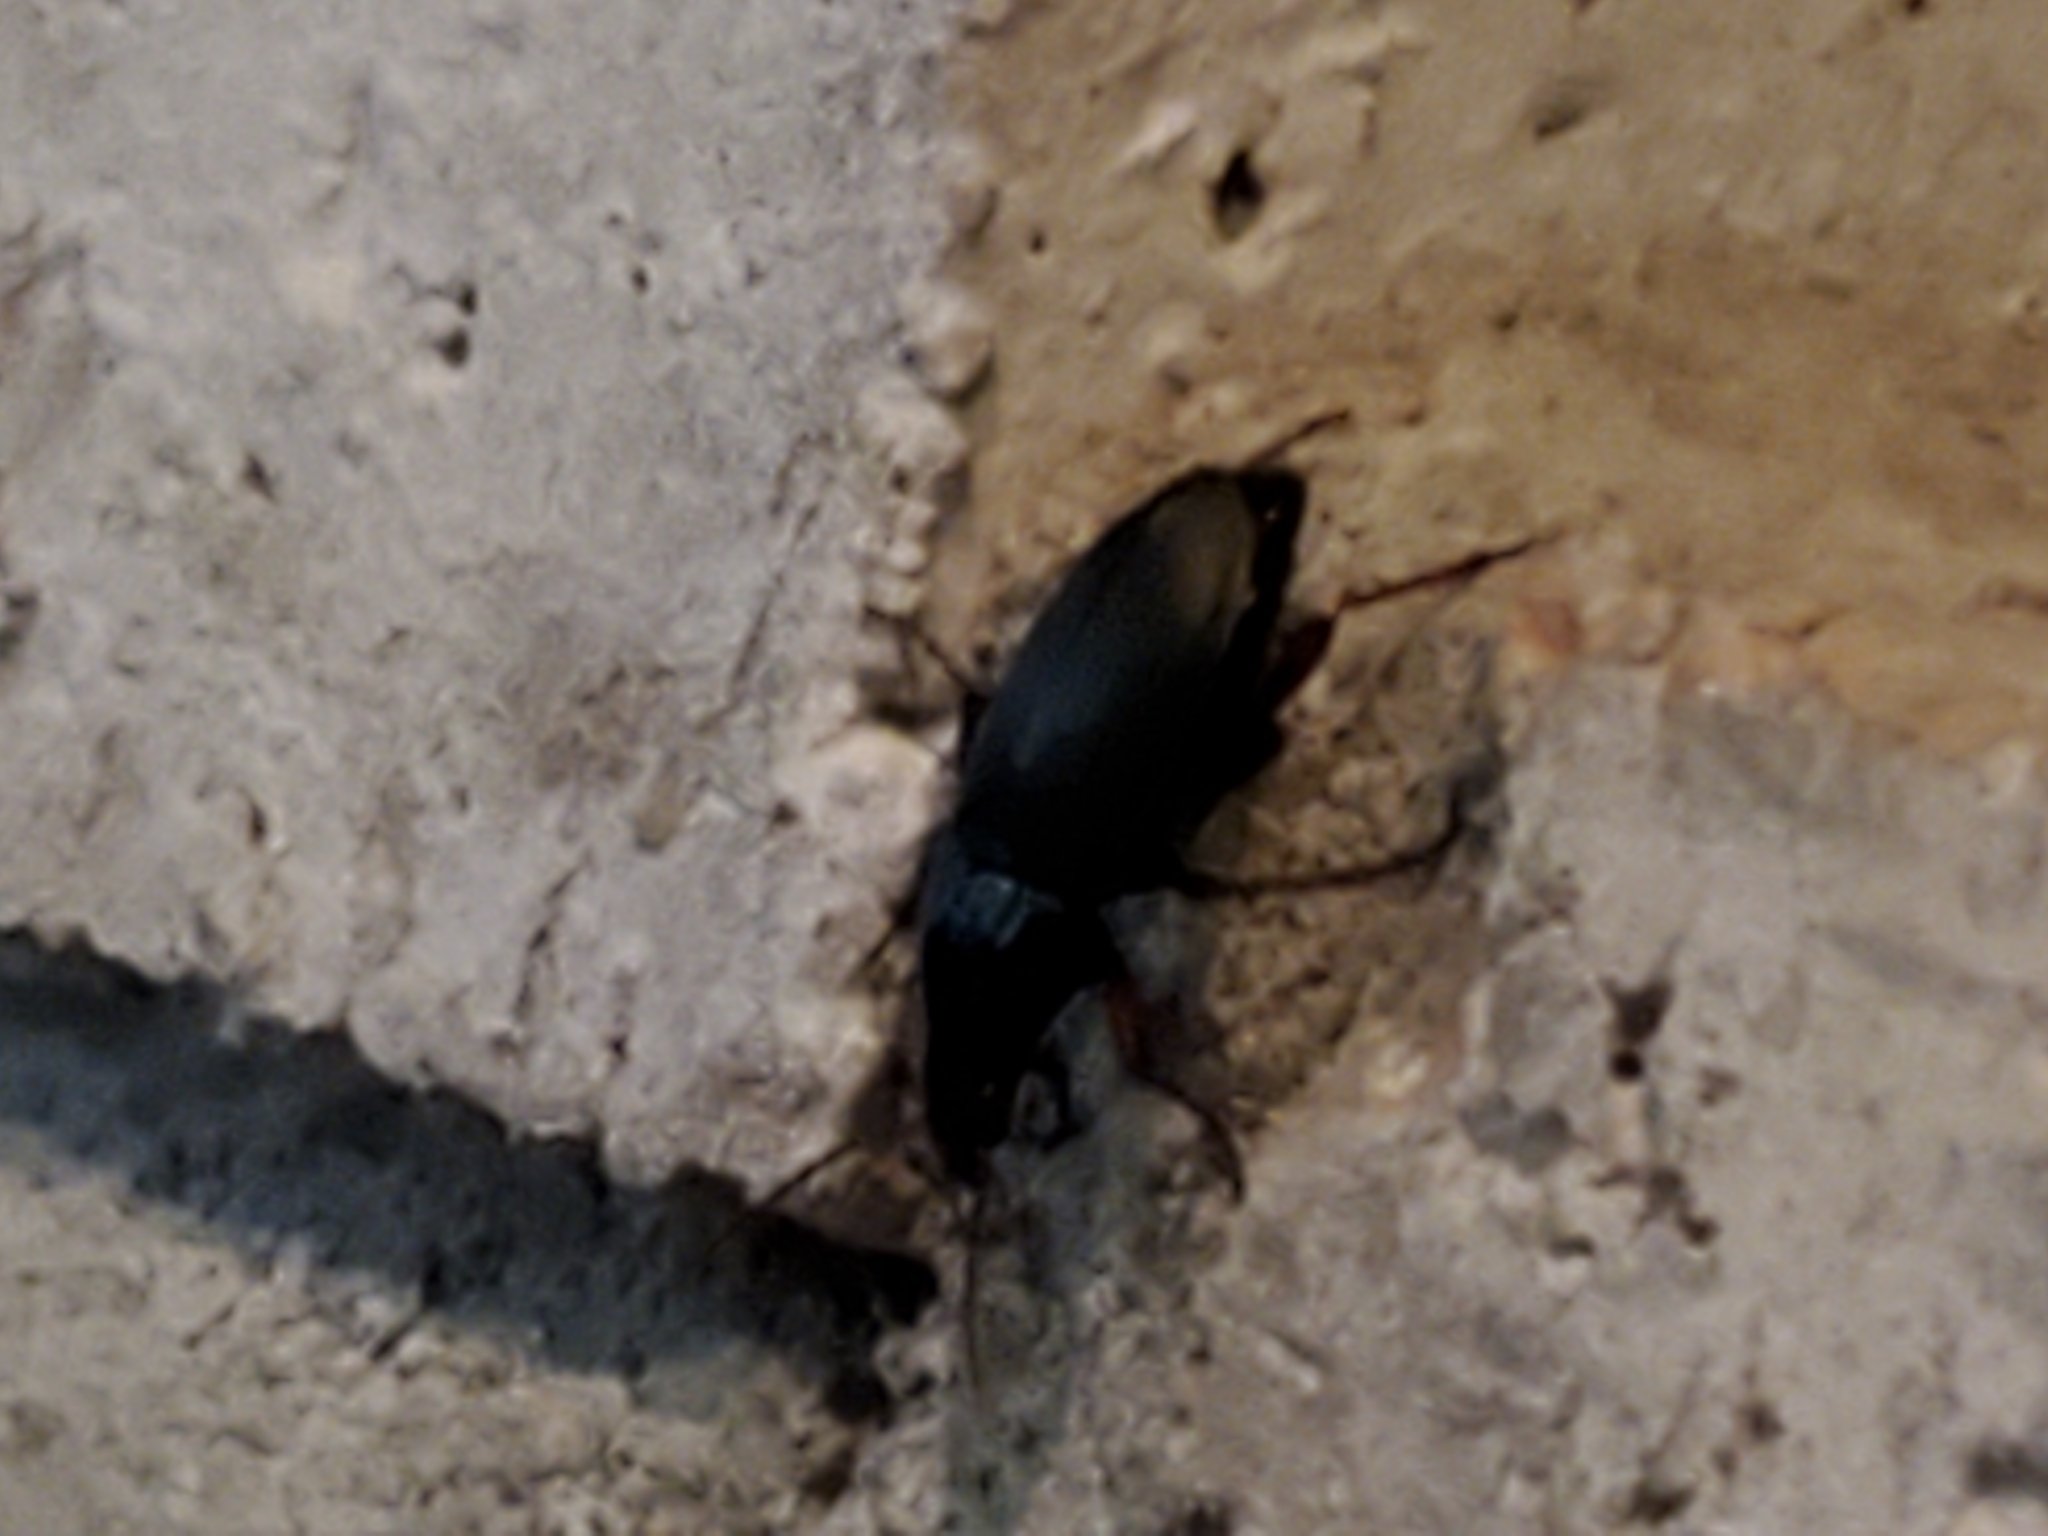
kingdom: Animalia
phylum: Arthropoda
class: Insecta
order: Coleoptera
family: Carabidae
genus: Calathus
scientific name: Calathus fuscipes
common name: Dark-footed harp ground beetle
